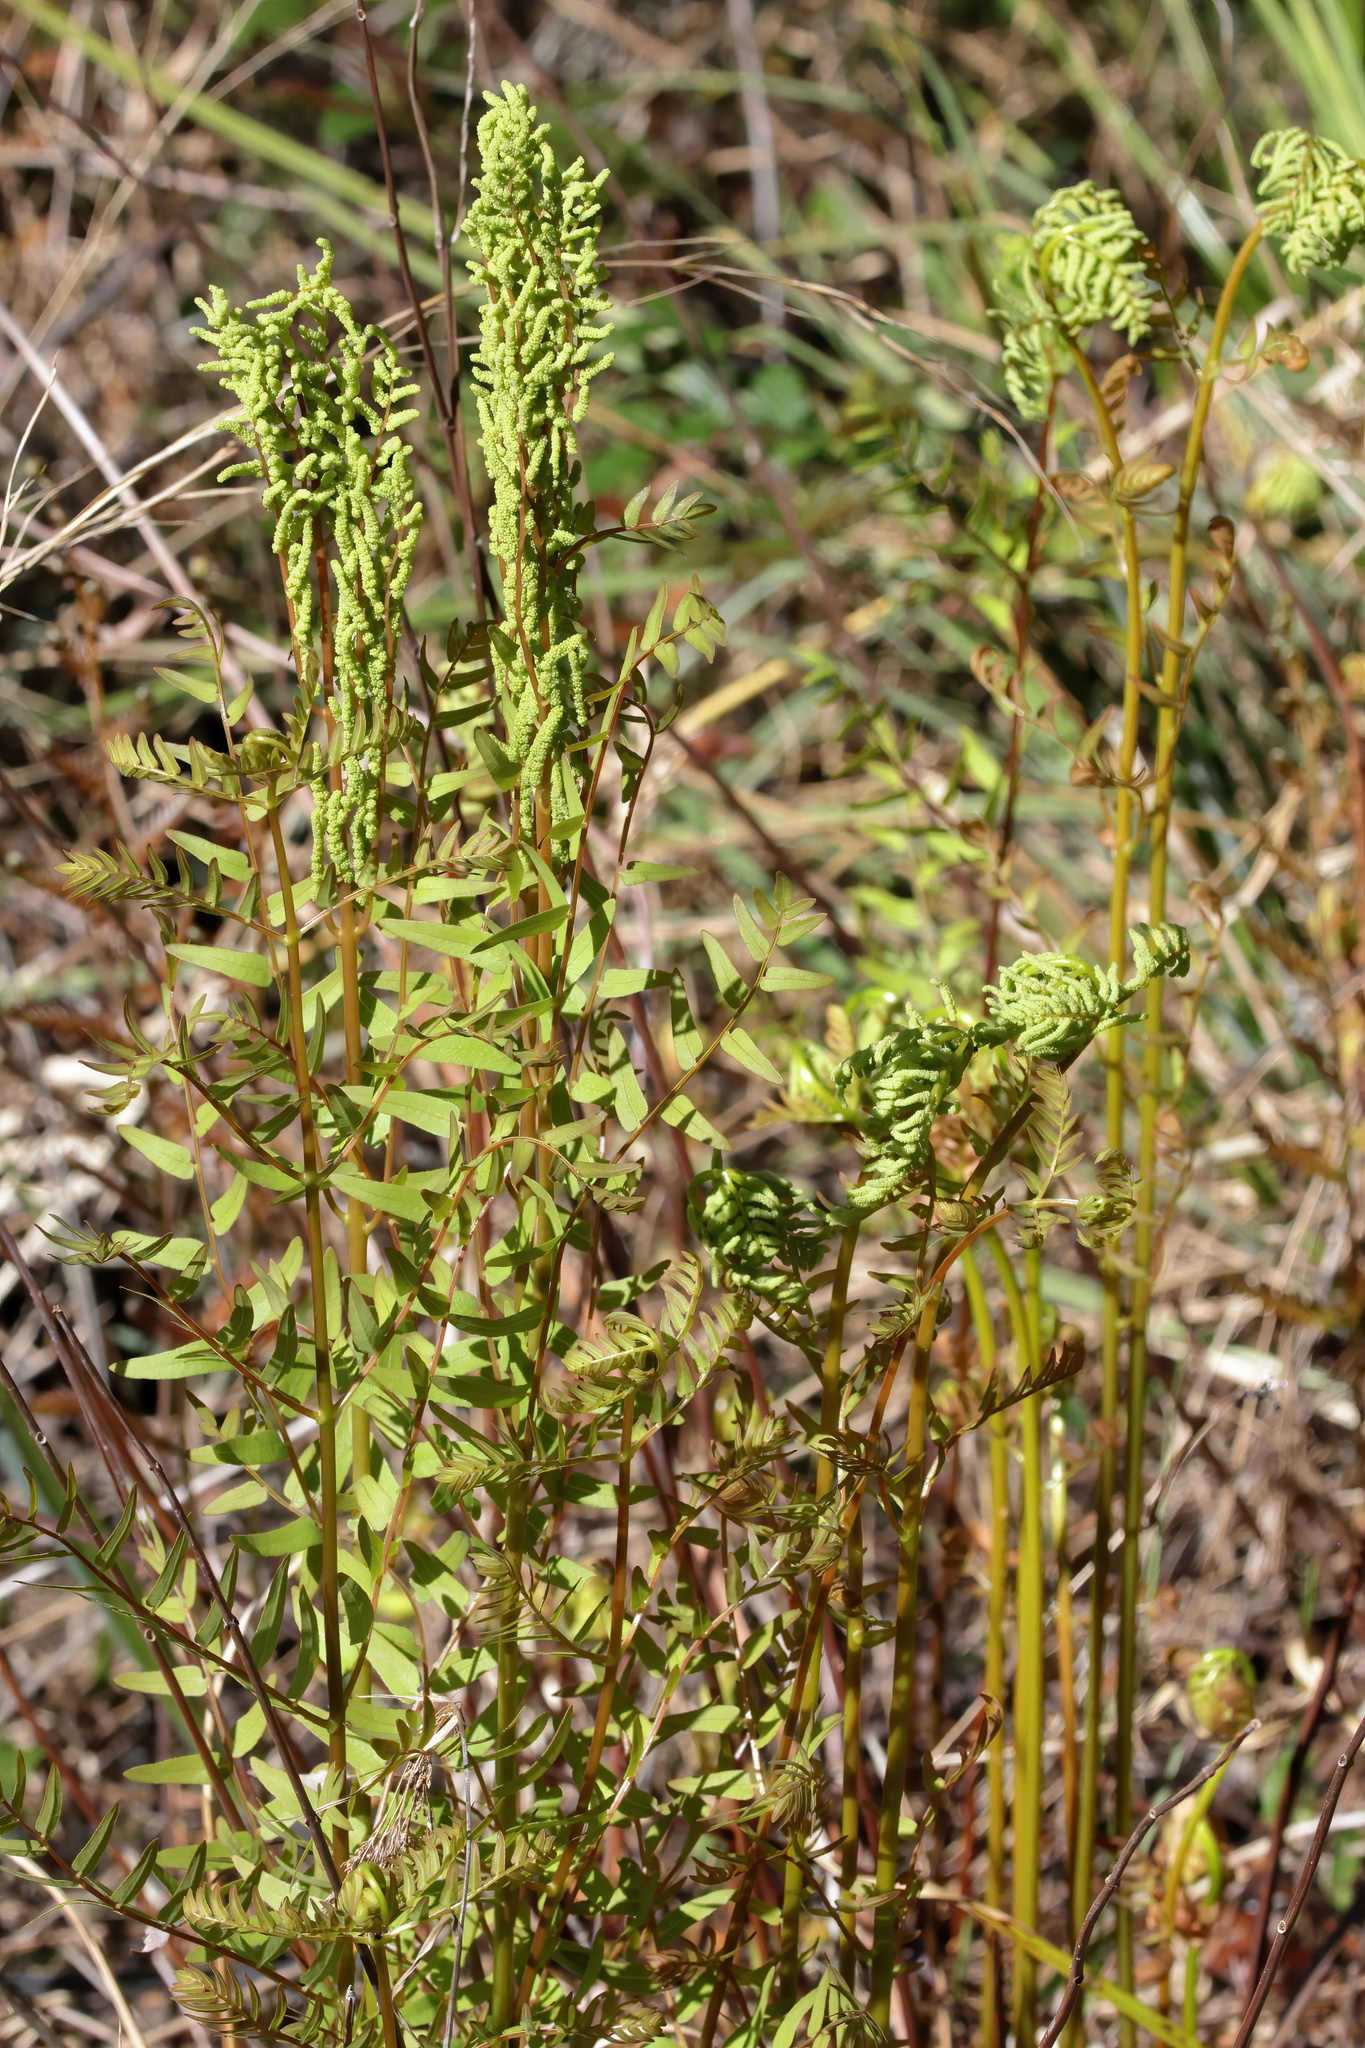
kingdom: Plantae
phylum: Tracheophyta
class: Polypodiopsida
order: Osmundales
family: Osmundaceae
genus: Osmunda
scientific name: Osmunda spectabilis
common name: American royal fern
